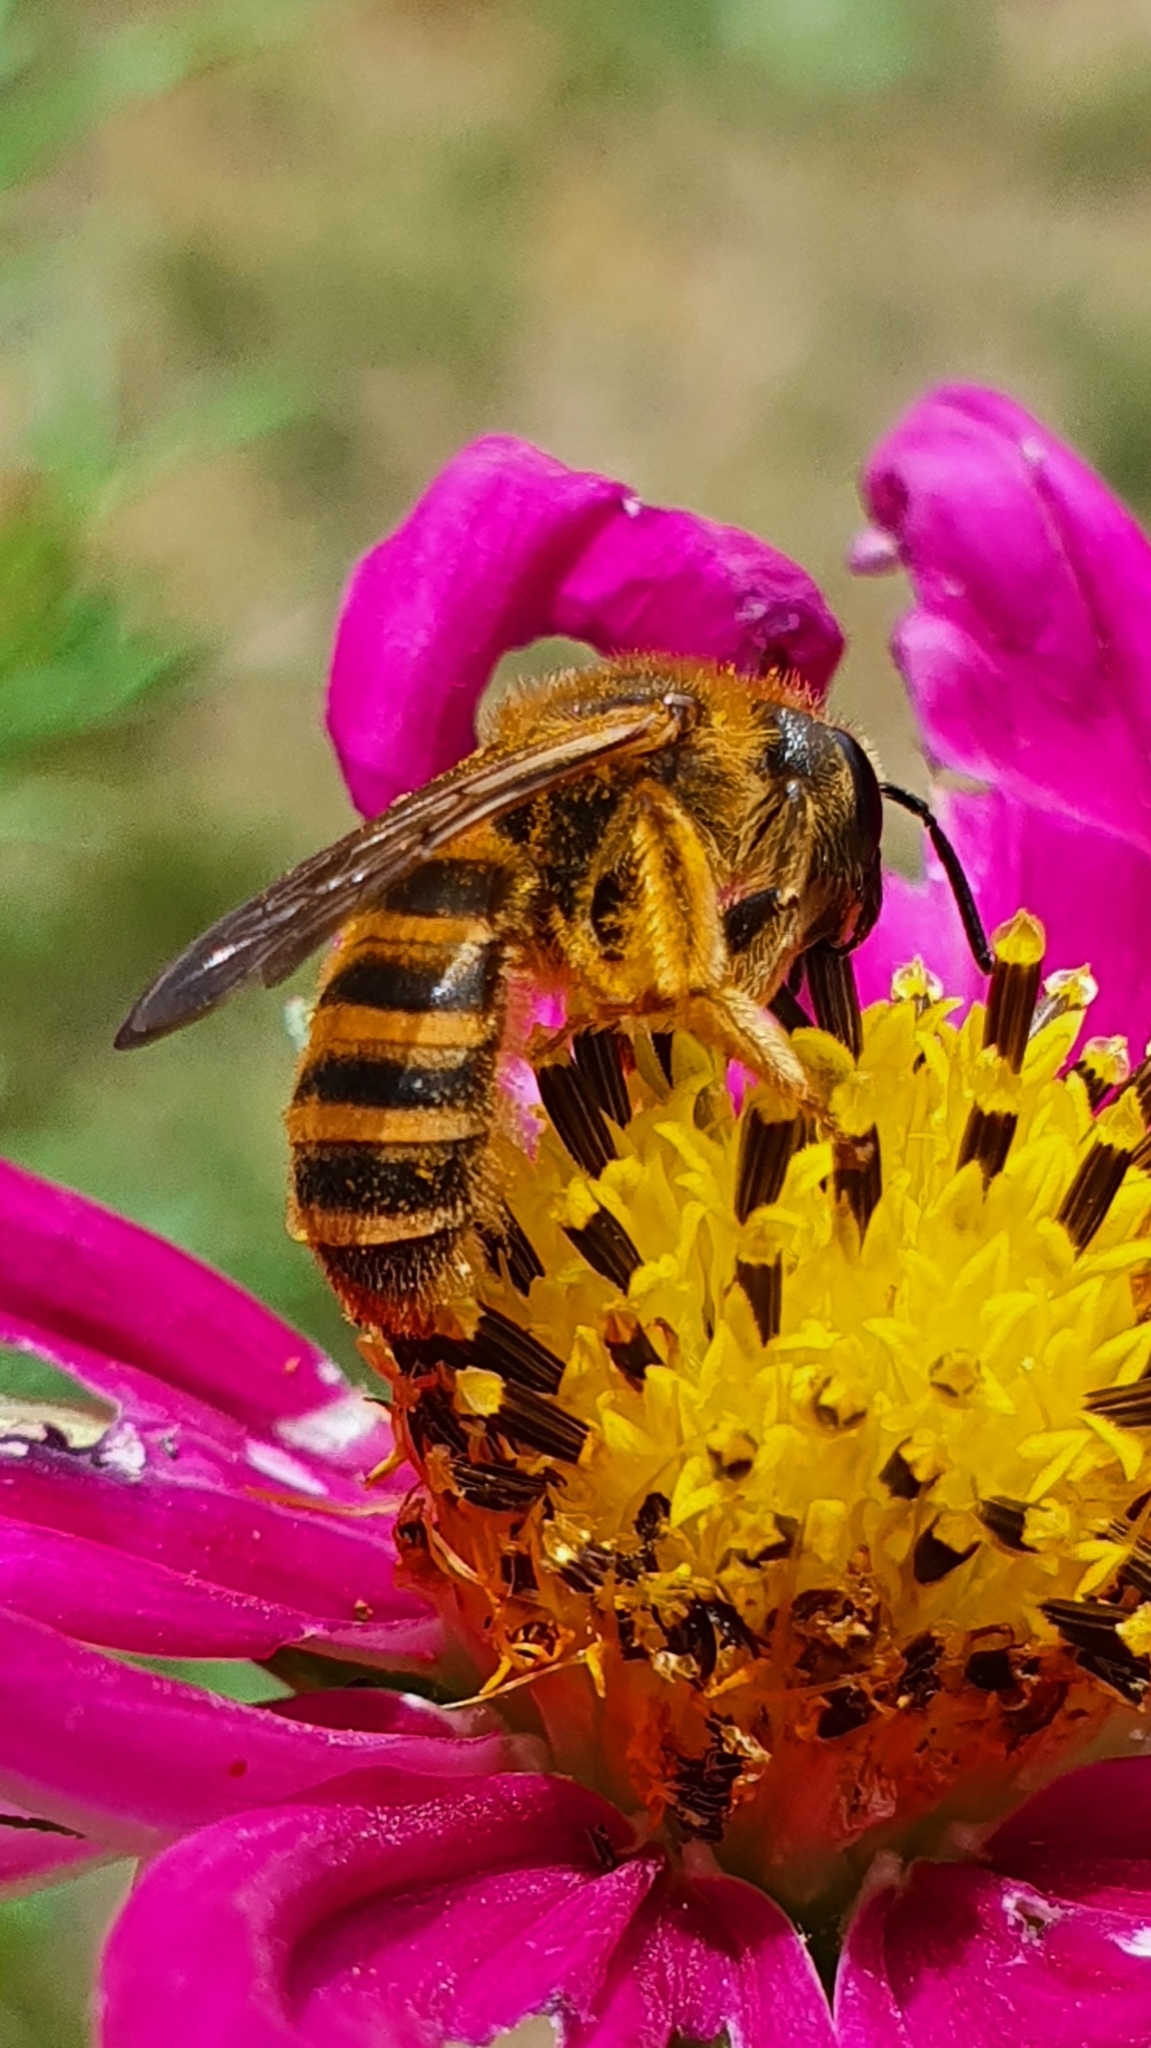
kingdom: Animalia
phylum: Arthropoda
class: Insecta
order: Hymenoptera
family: Halictidae
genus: Halictus
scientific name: Halictus scabiosae
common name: Great banded furrow bee
